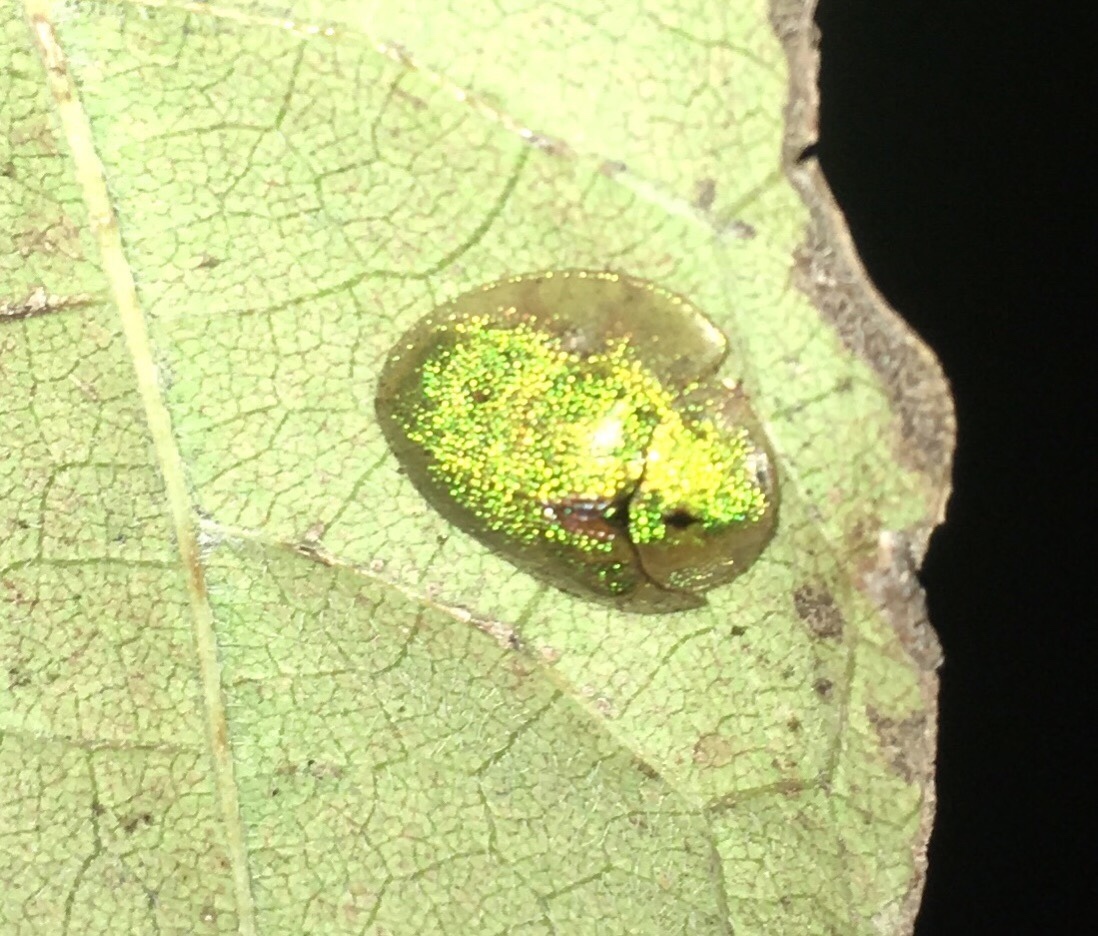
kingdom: Animalia
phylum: Arthropoda
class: Insecta
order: Coleoptera
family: Chrysomelidae
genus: Eurypepla
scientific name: Eurypepla calochroma
